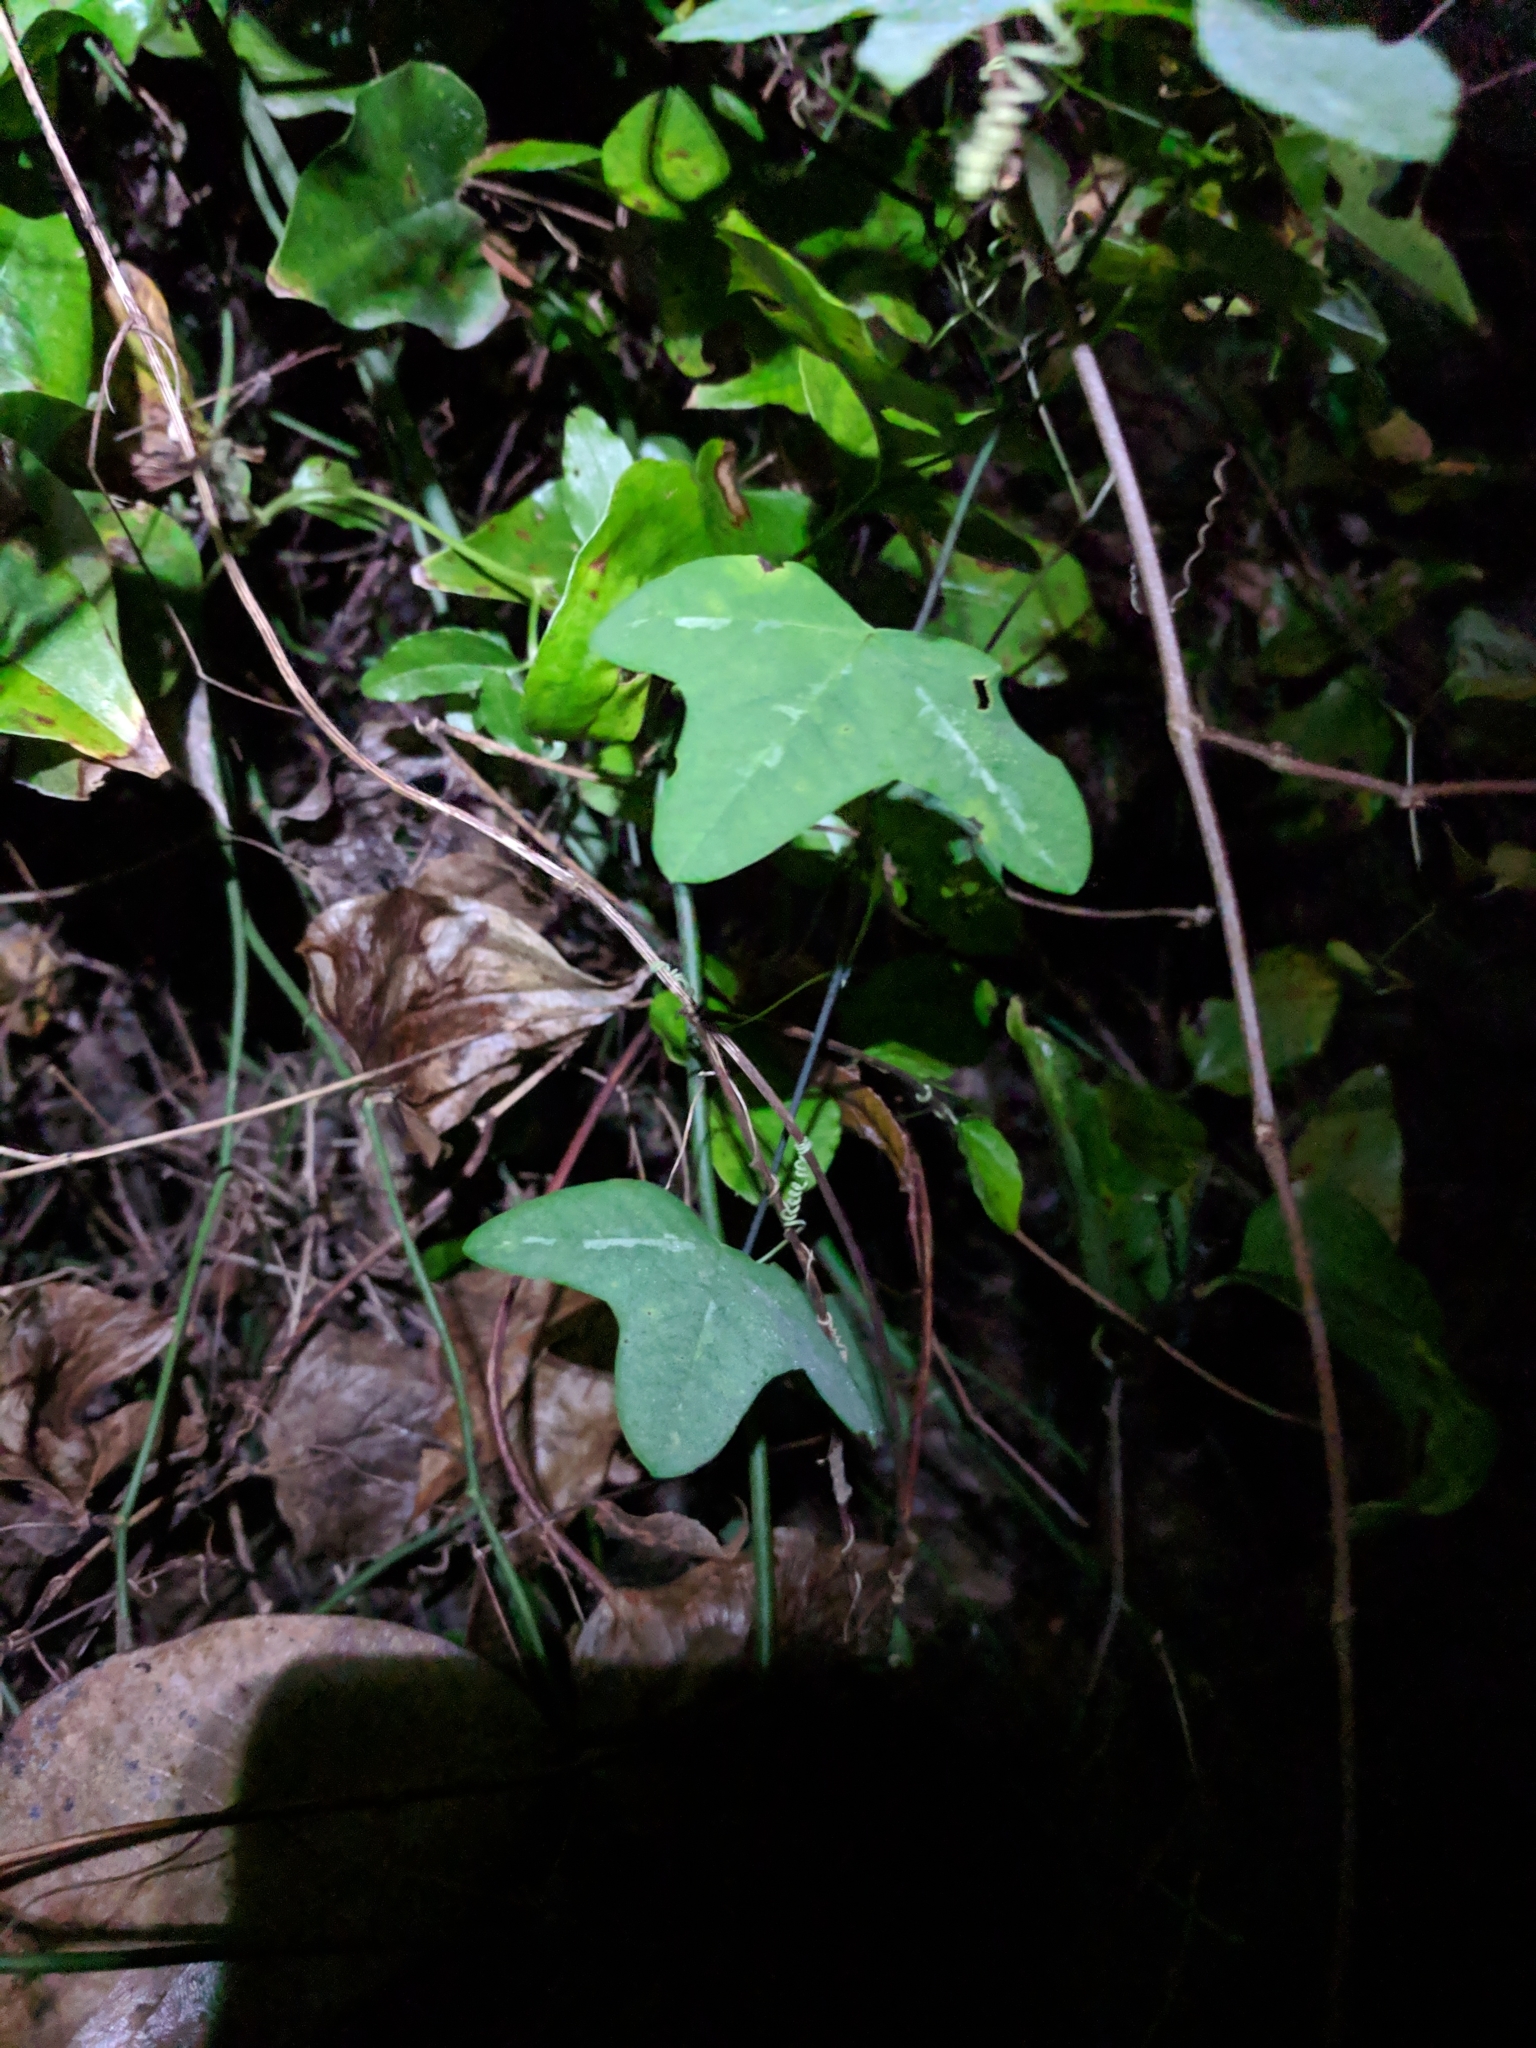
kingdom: Plantae
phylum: Tracheophyta
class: Magnoliopsida
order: Malpighiales
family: Passifloraceae
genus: Passiflora
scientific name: Passiflora lutea
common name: Yellow passionflower
